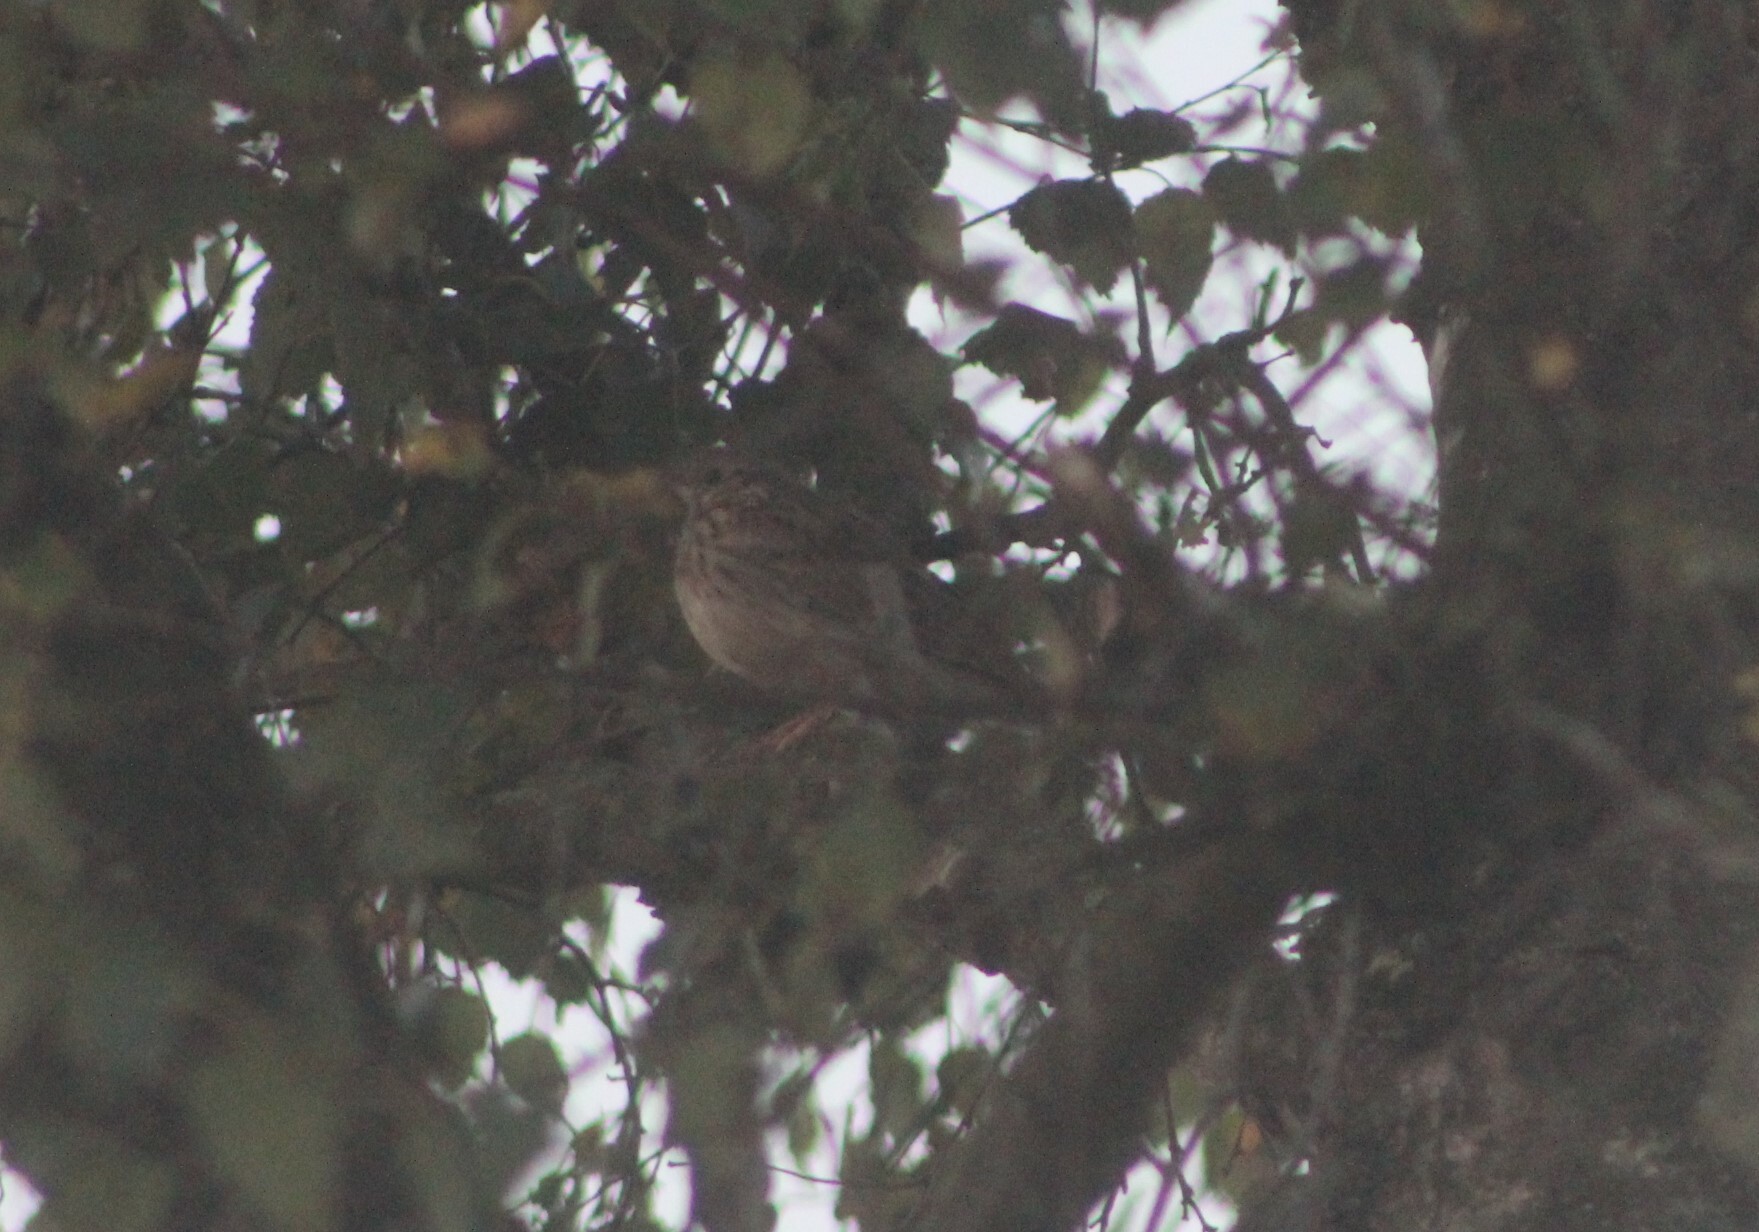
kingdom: Animalia
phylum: Chordata
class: Aves
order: Passeriformes
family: Motacillidae
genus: Anthus
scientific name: Anthus trivialis
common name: Tree pipit
